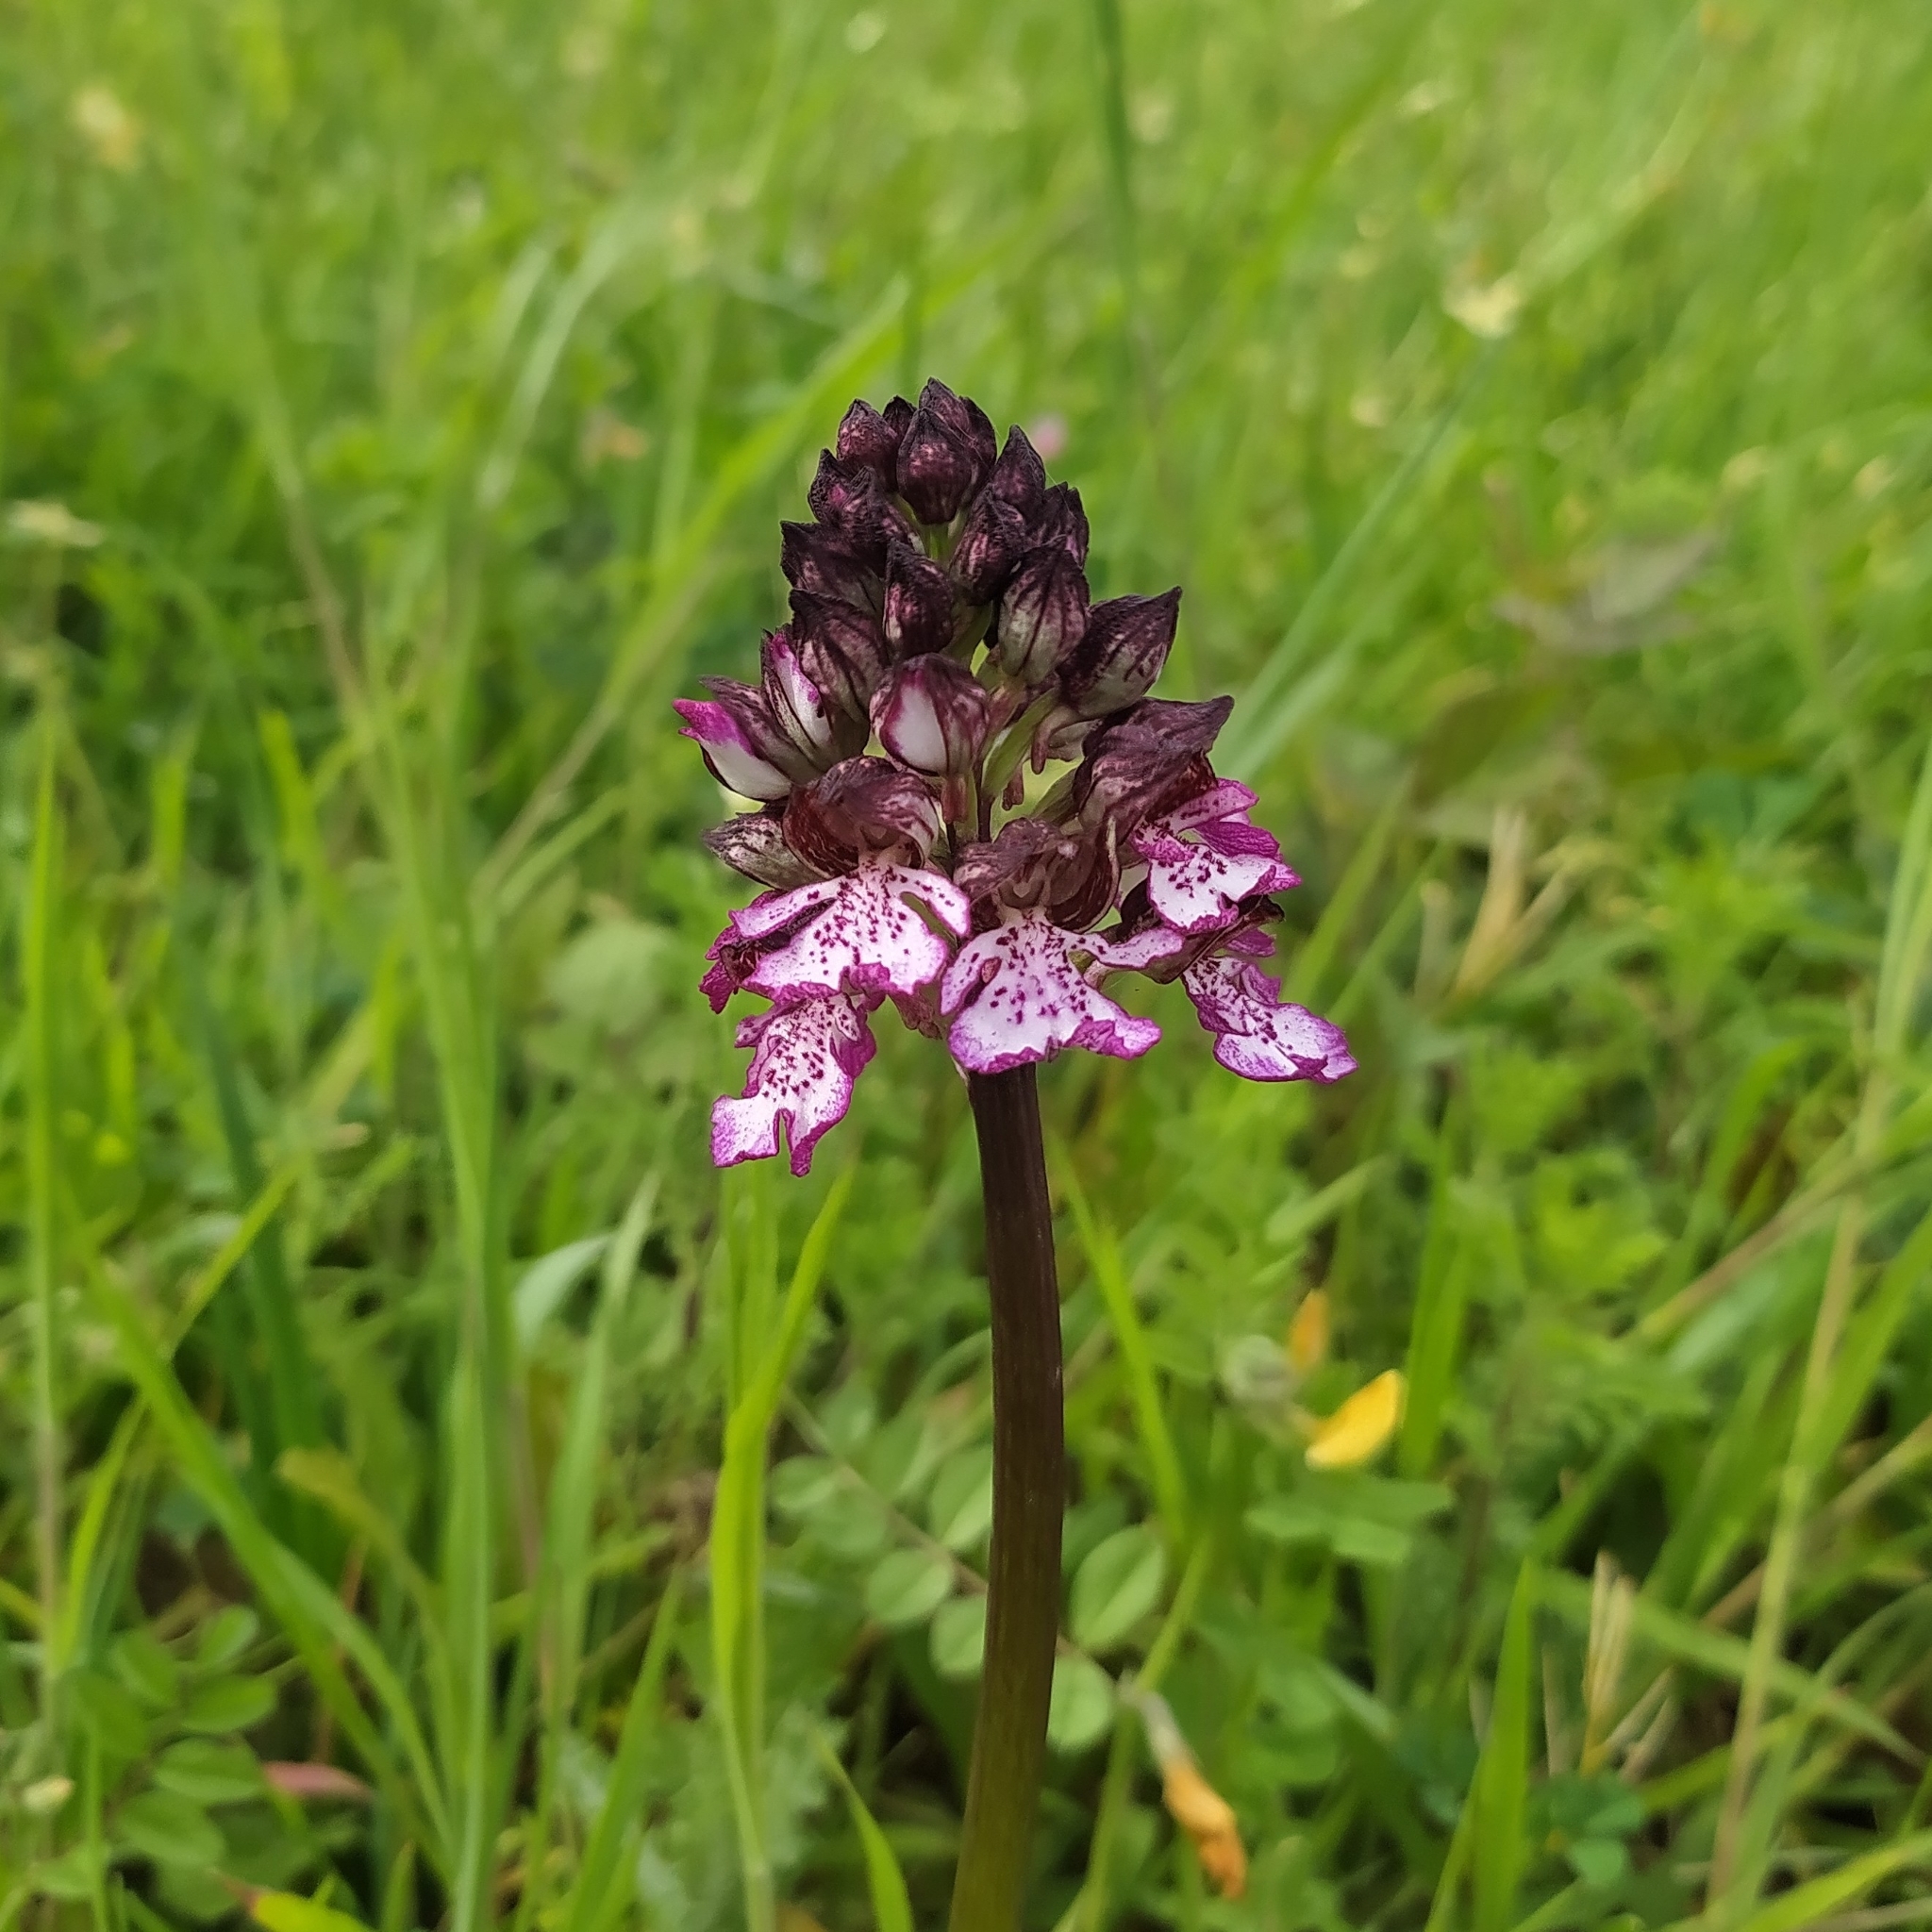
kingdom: Plantae
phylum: Tracheophyta
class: Liliopsida
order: Asparagales
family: Orchidaceae
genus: Orchis
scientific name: Orchis purpurea
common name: Lady orchid
